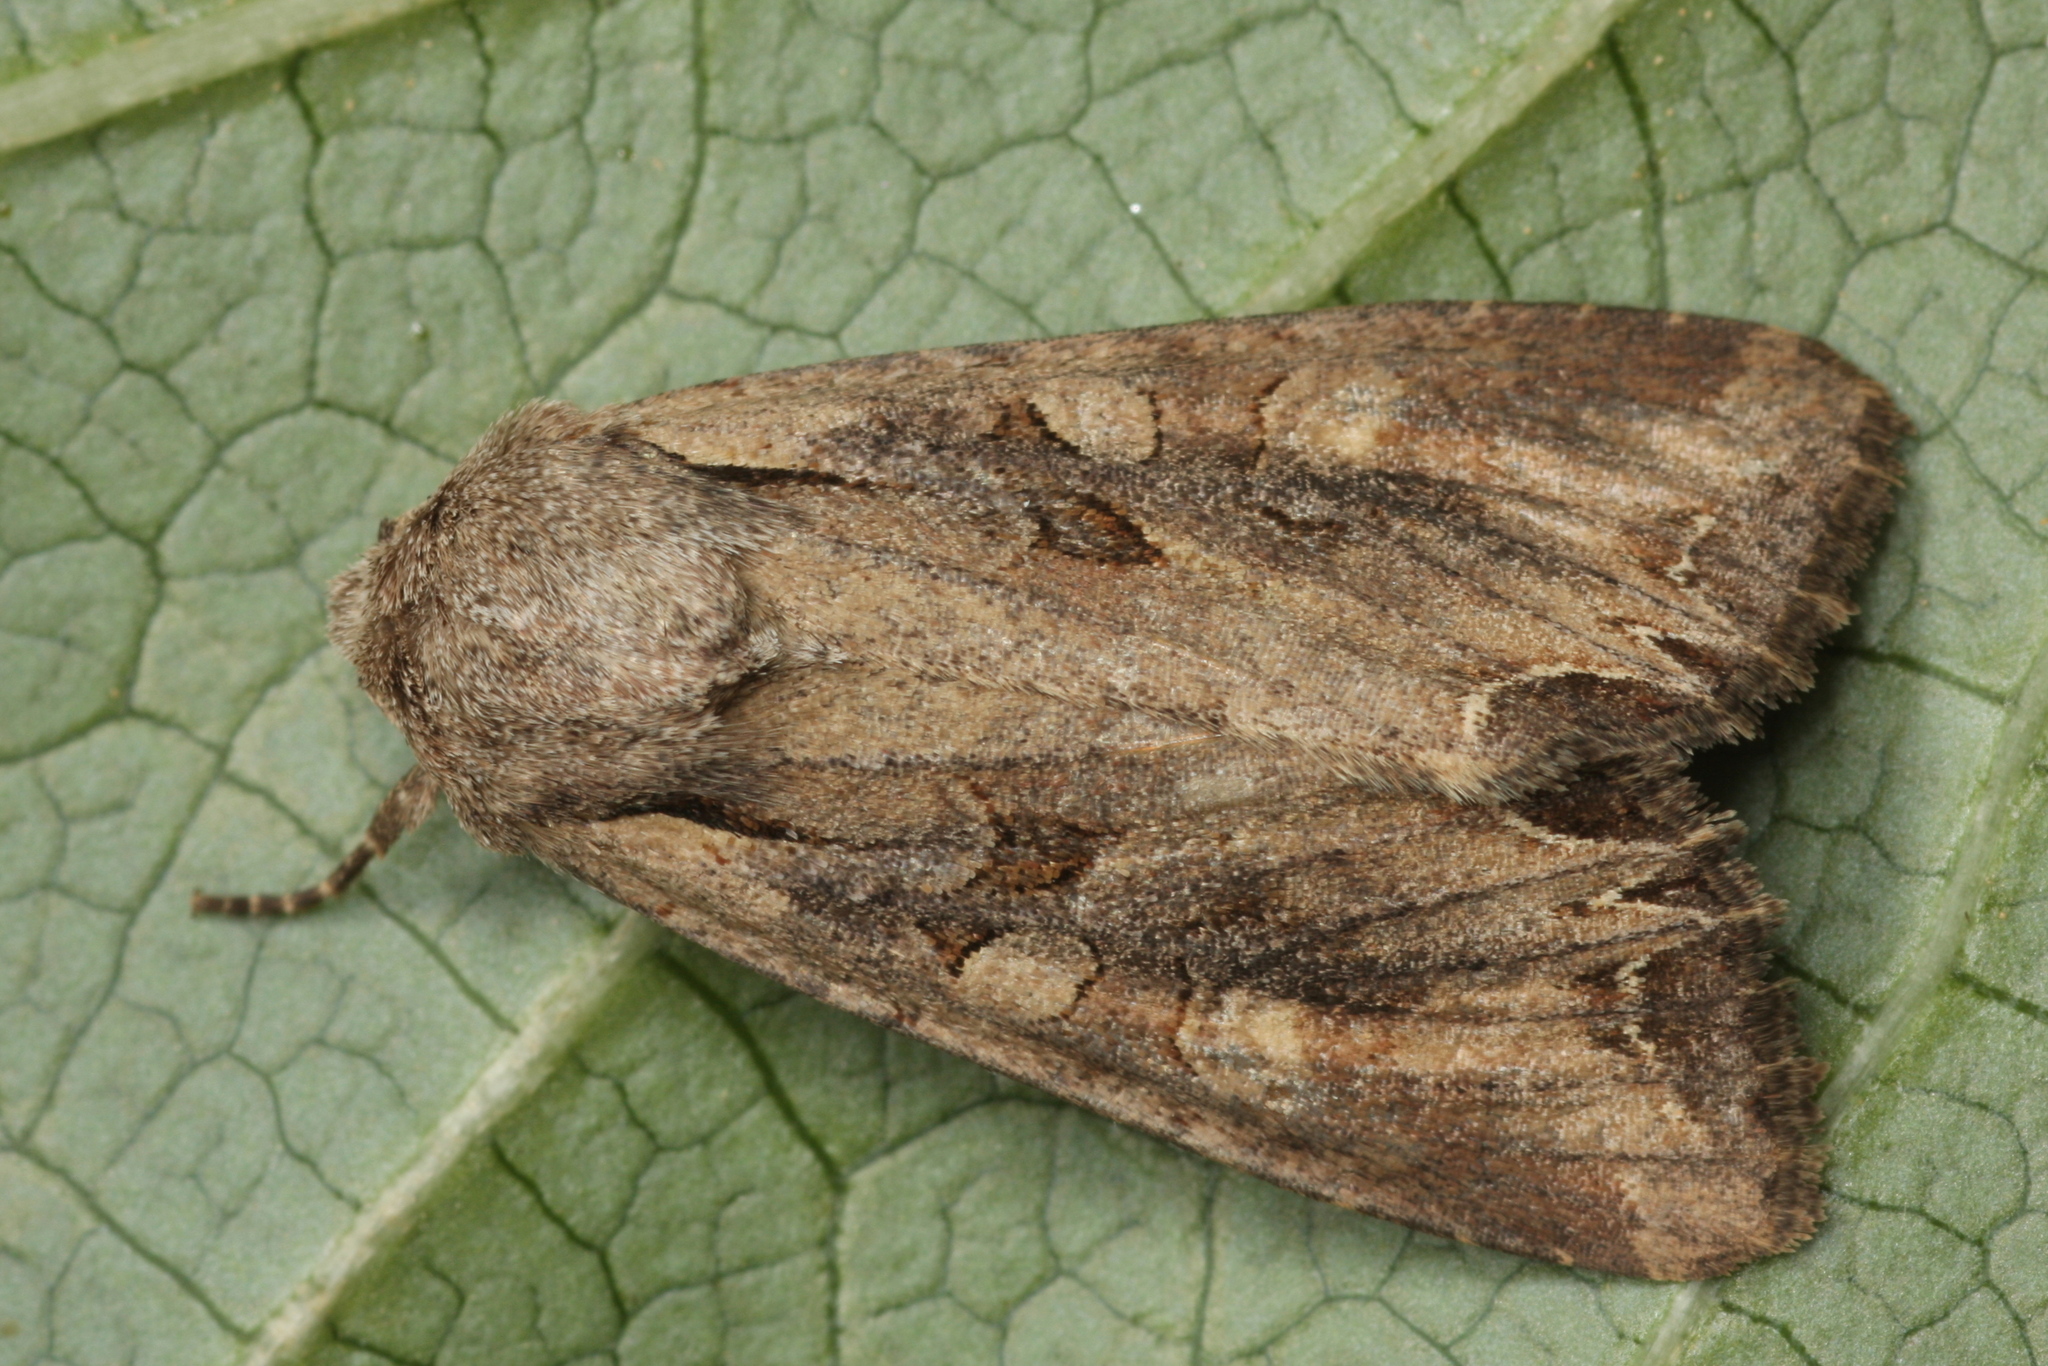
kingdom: Animalia
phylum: Arthropoda
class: Insecta
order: Lepidoptera
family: Noctuidae
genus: Lacanobia
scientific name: Lacanobia suasa
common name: Dog's tooth
